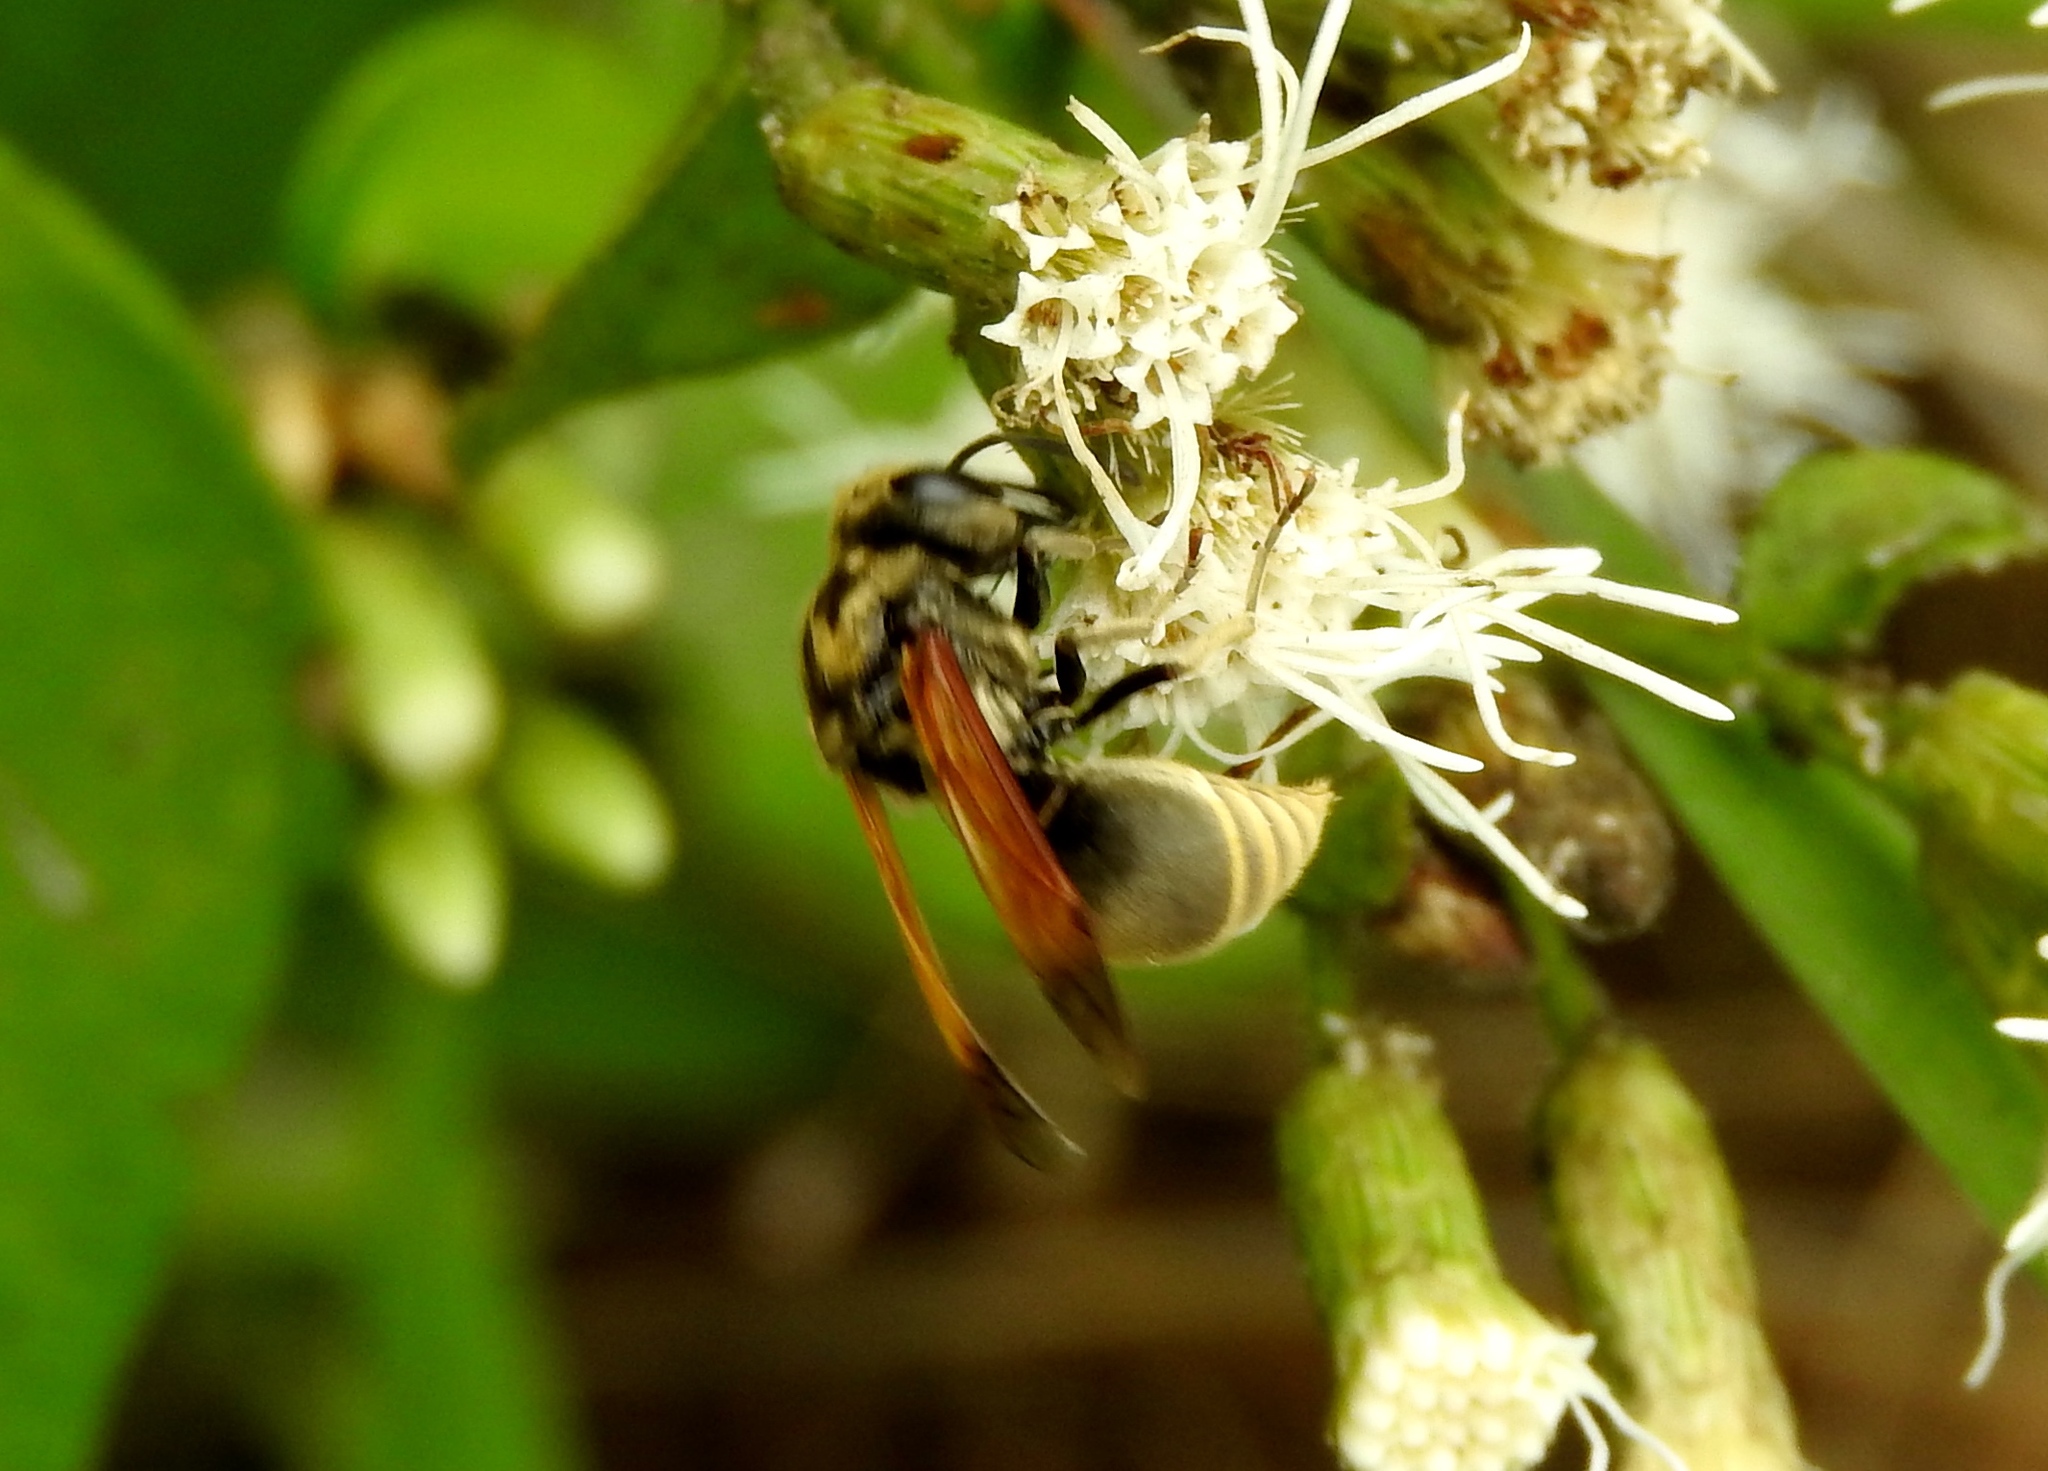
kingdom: Animalia
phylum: Arthropoda
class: Insecta
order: Hymenoptera
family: Vespidae
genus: Brachygastra
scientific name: Brachygastra mellifica
